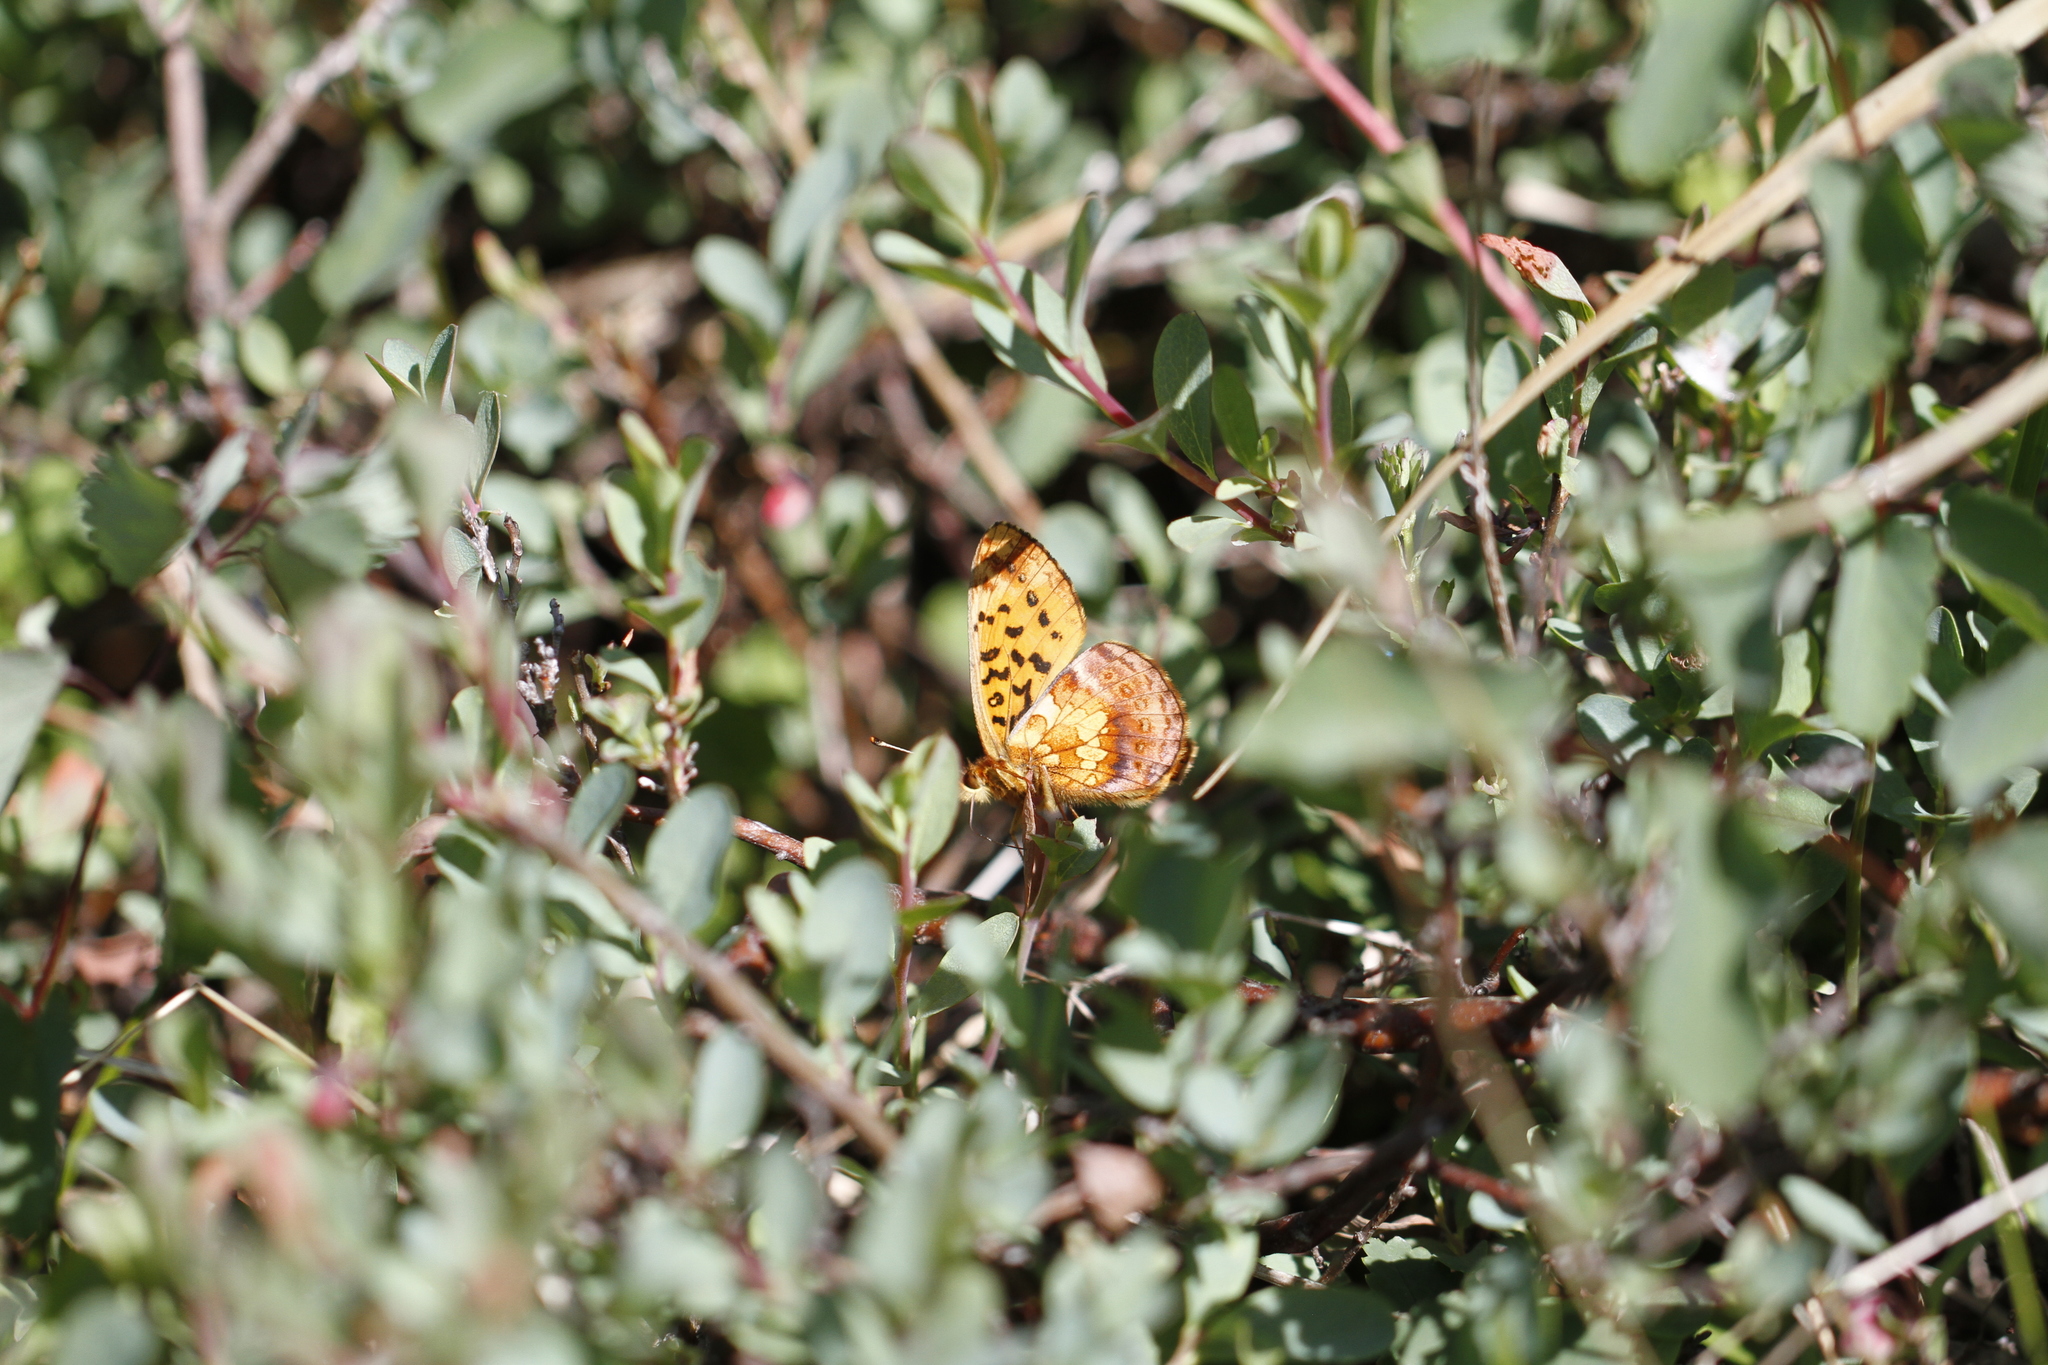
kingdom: Animalia
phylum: Arthropoda
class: Insecta
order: Lepidoptera
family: Nymphalidae
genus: Boloria
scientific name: Boloria epithore
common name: Pacific fritillary
